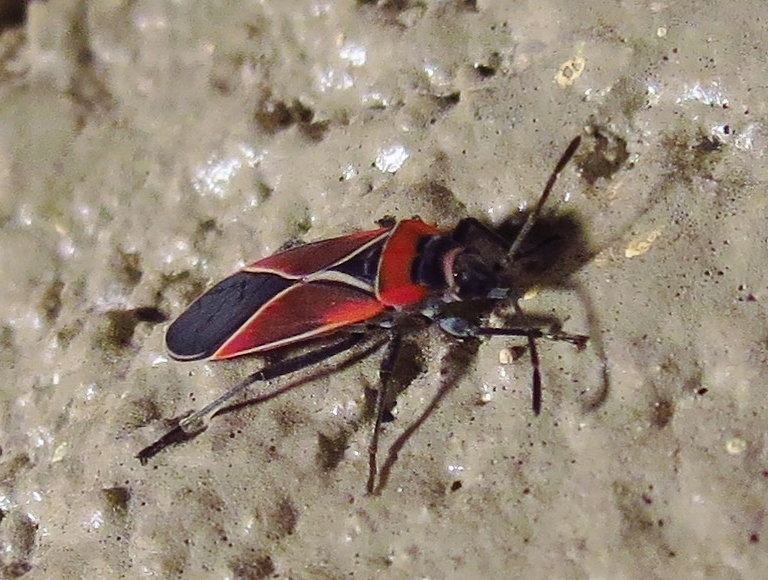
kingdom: Animalia
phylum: Arthropoda
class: Insecta
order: Hemiptera
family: Lygaeidae
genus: Neacoryphus
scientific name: Neacoryphus bicrucis
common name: Lygaeid bug
